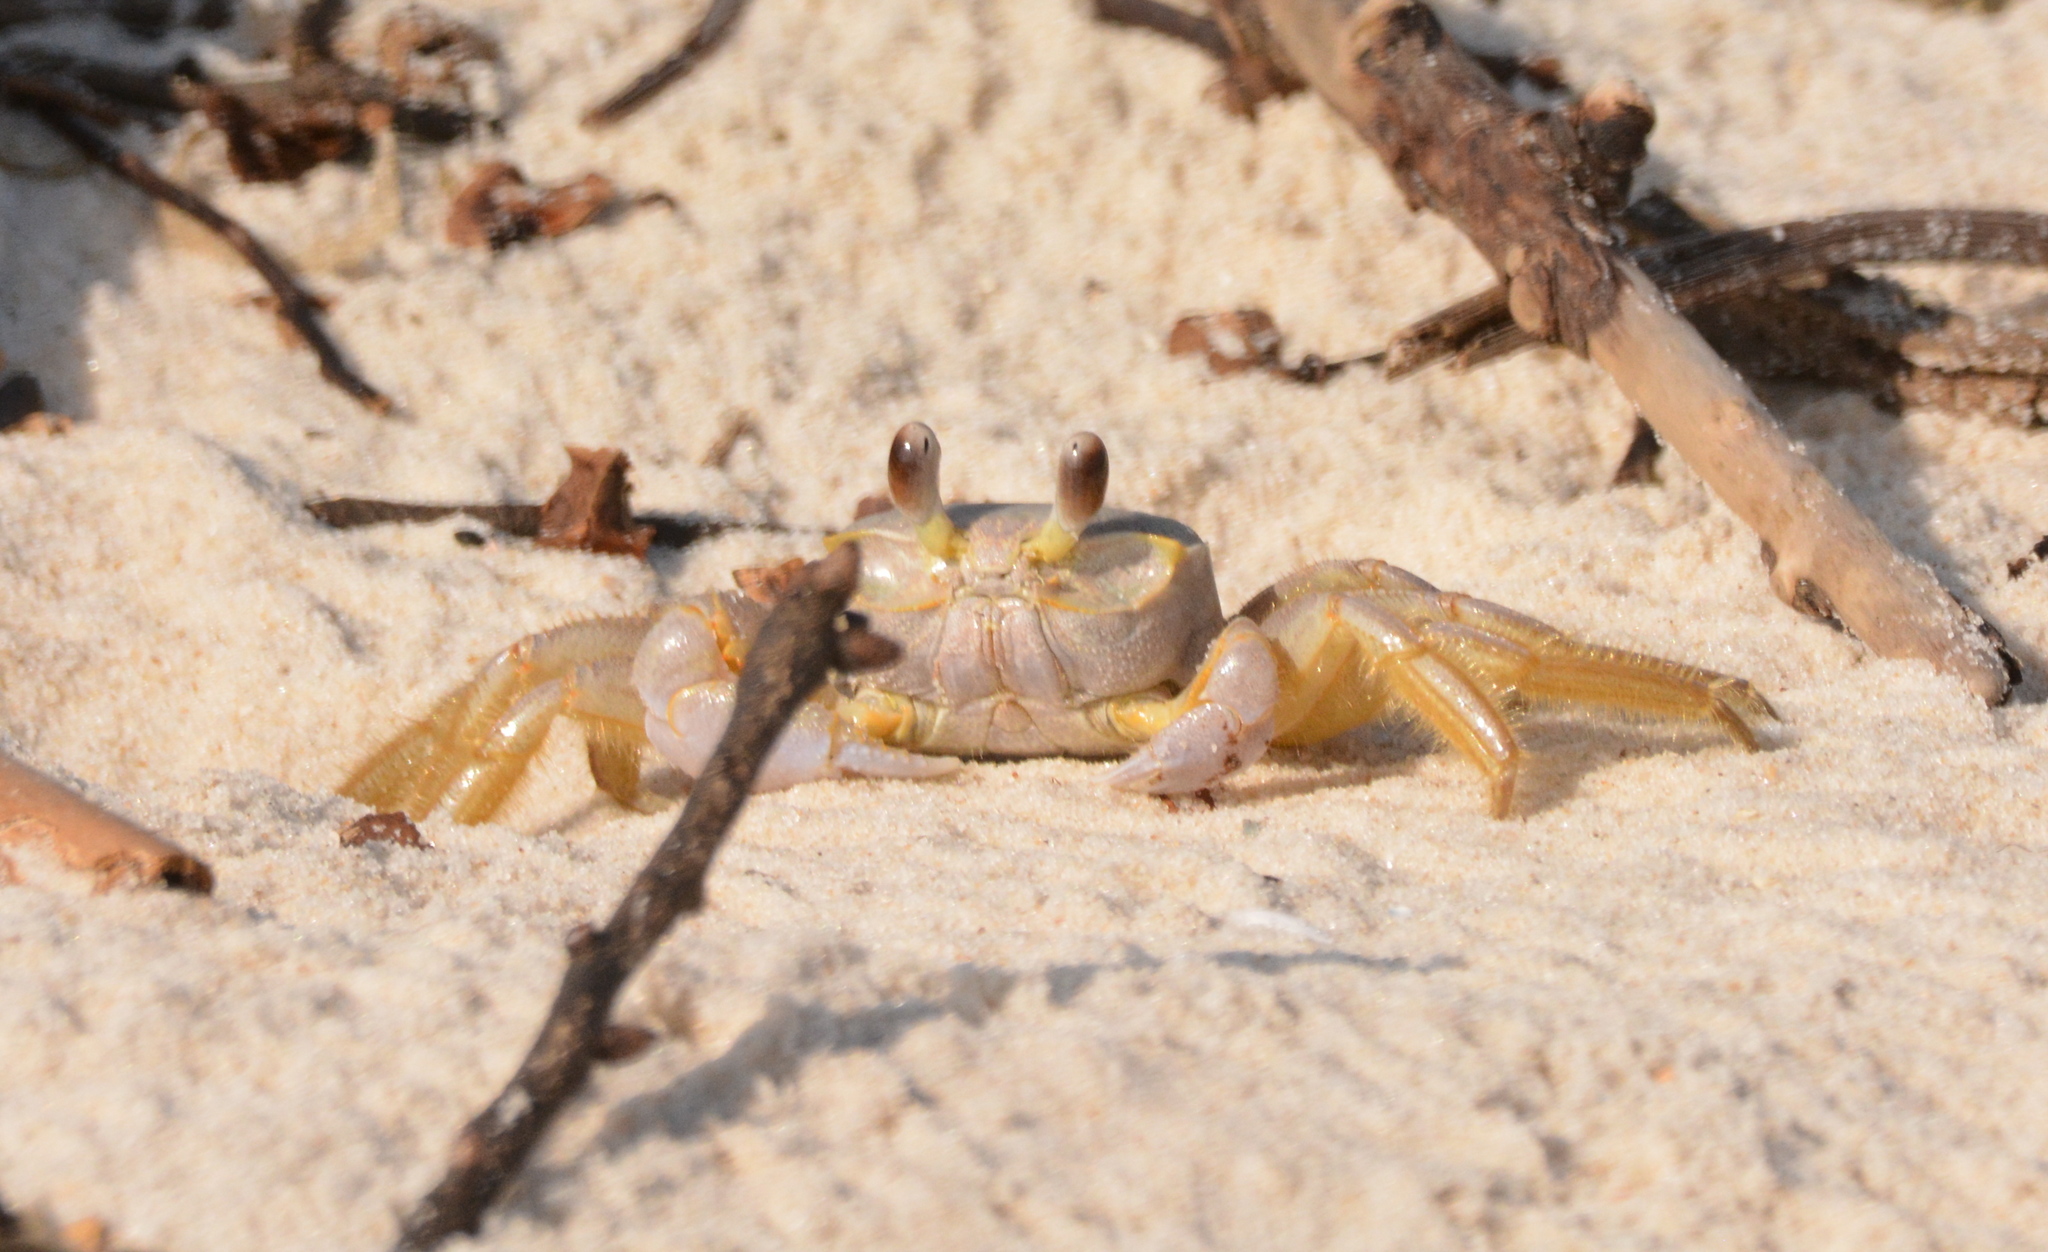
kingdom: Animalia
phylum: Arthropoda
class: Malacostraca
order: Decapoda
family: Ocypodidae
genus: Ocypode
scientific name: Ocypode quadrata
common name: Ghost crab
